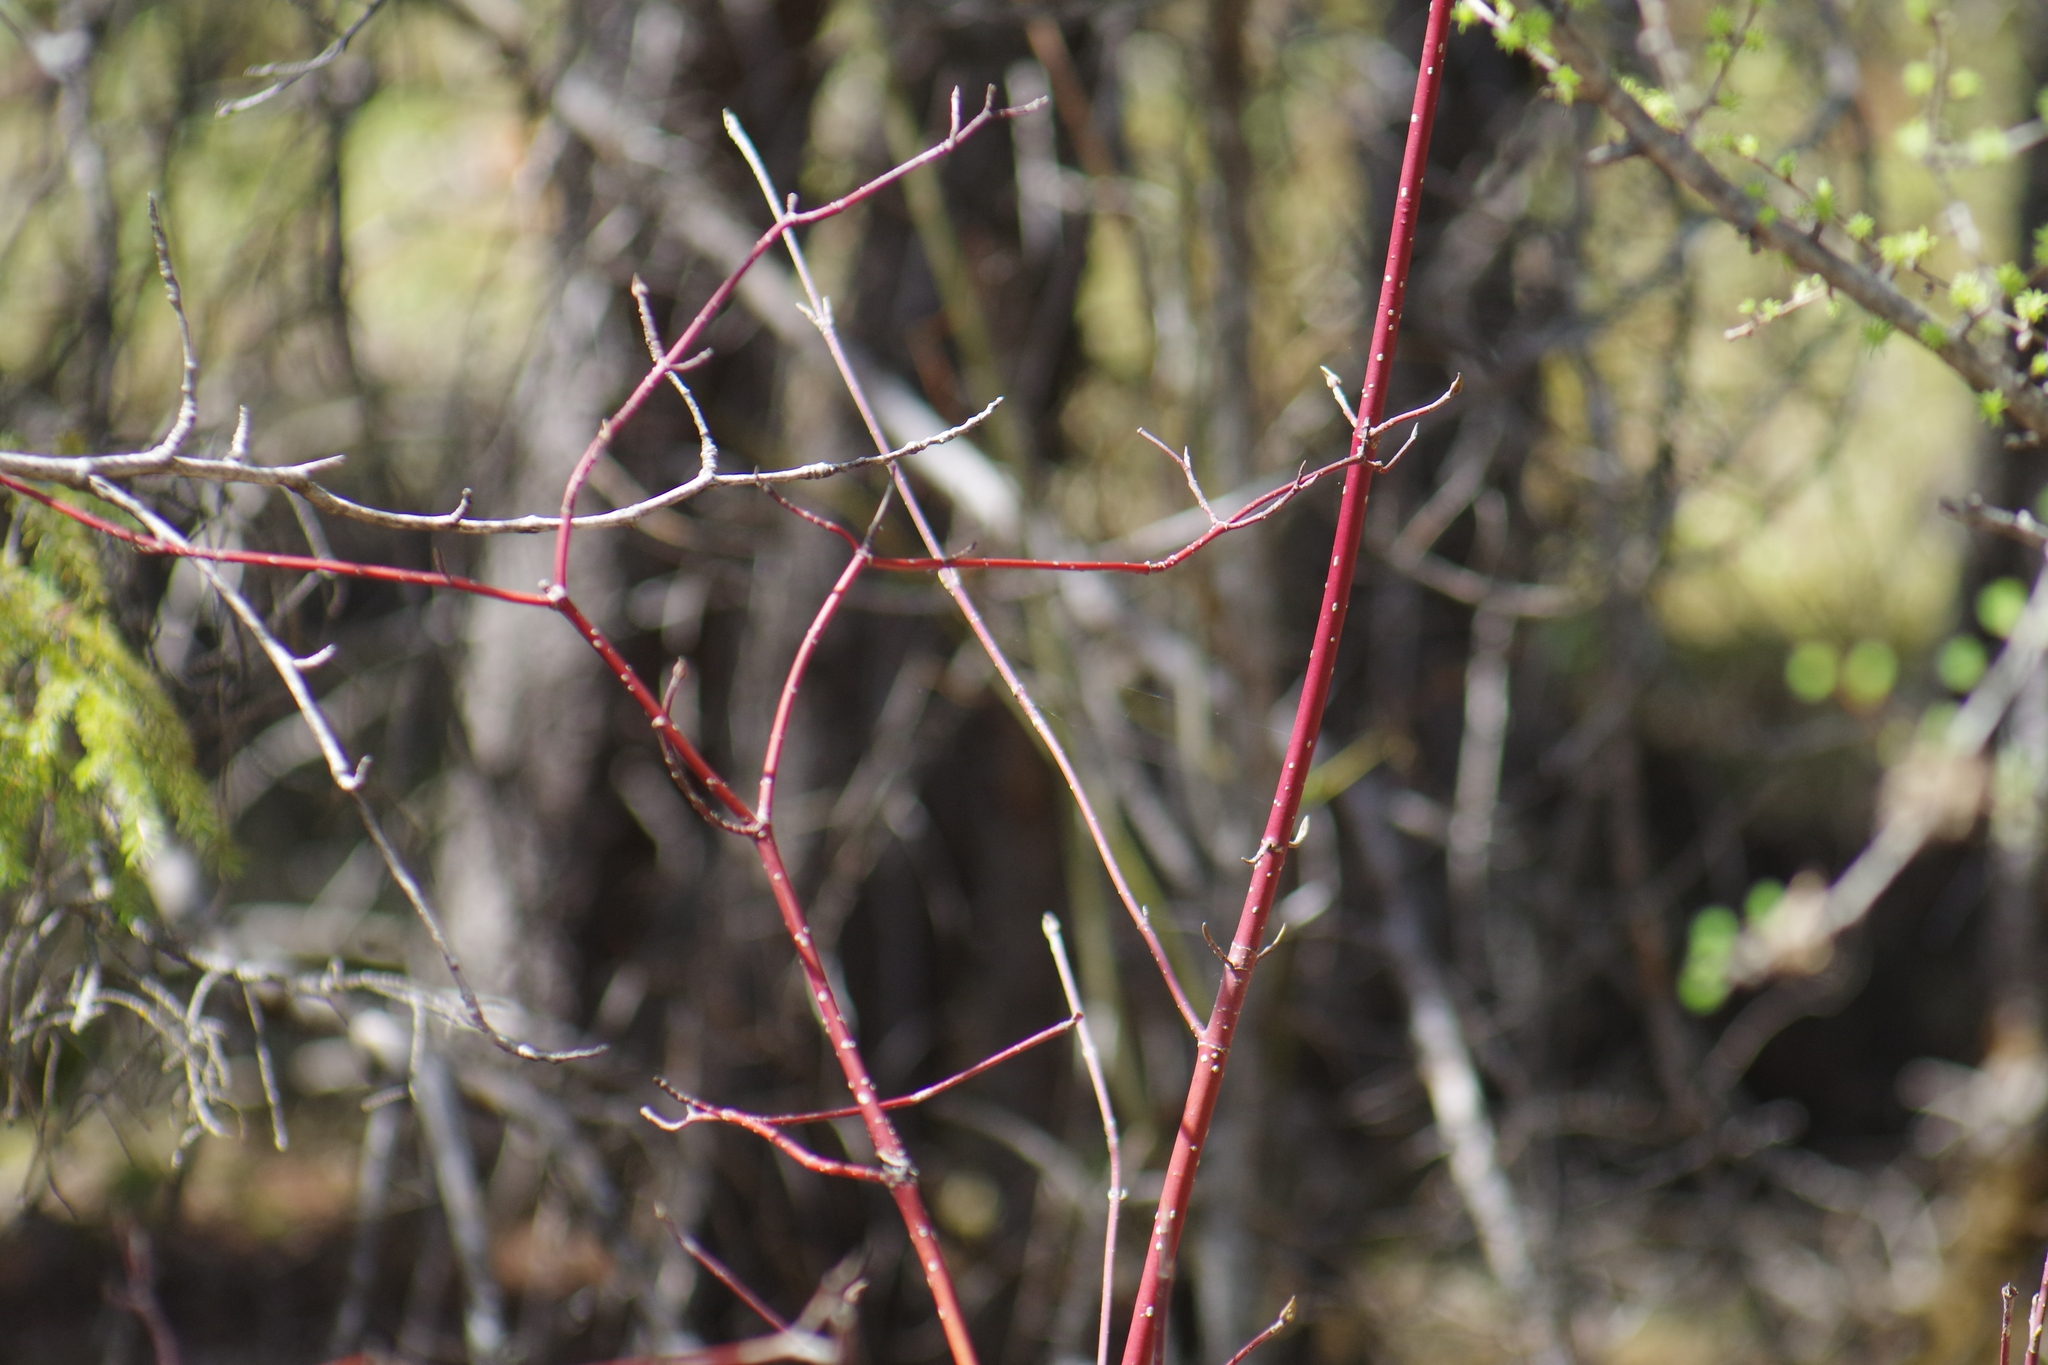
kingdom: Plantae
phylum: Tracheophyta
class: Magnoliopsida
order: Cornales
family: Cornaceae
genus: Cornus
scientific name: Cornus sericea
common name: Red-osier dogwood
